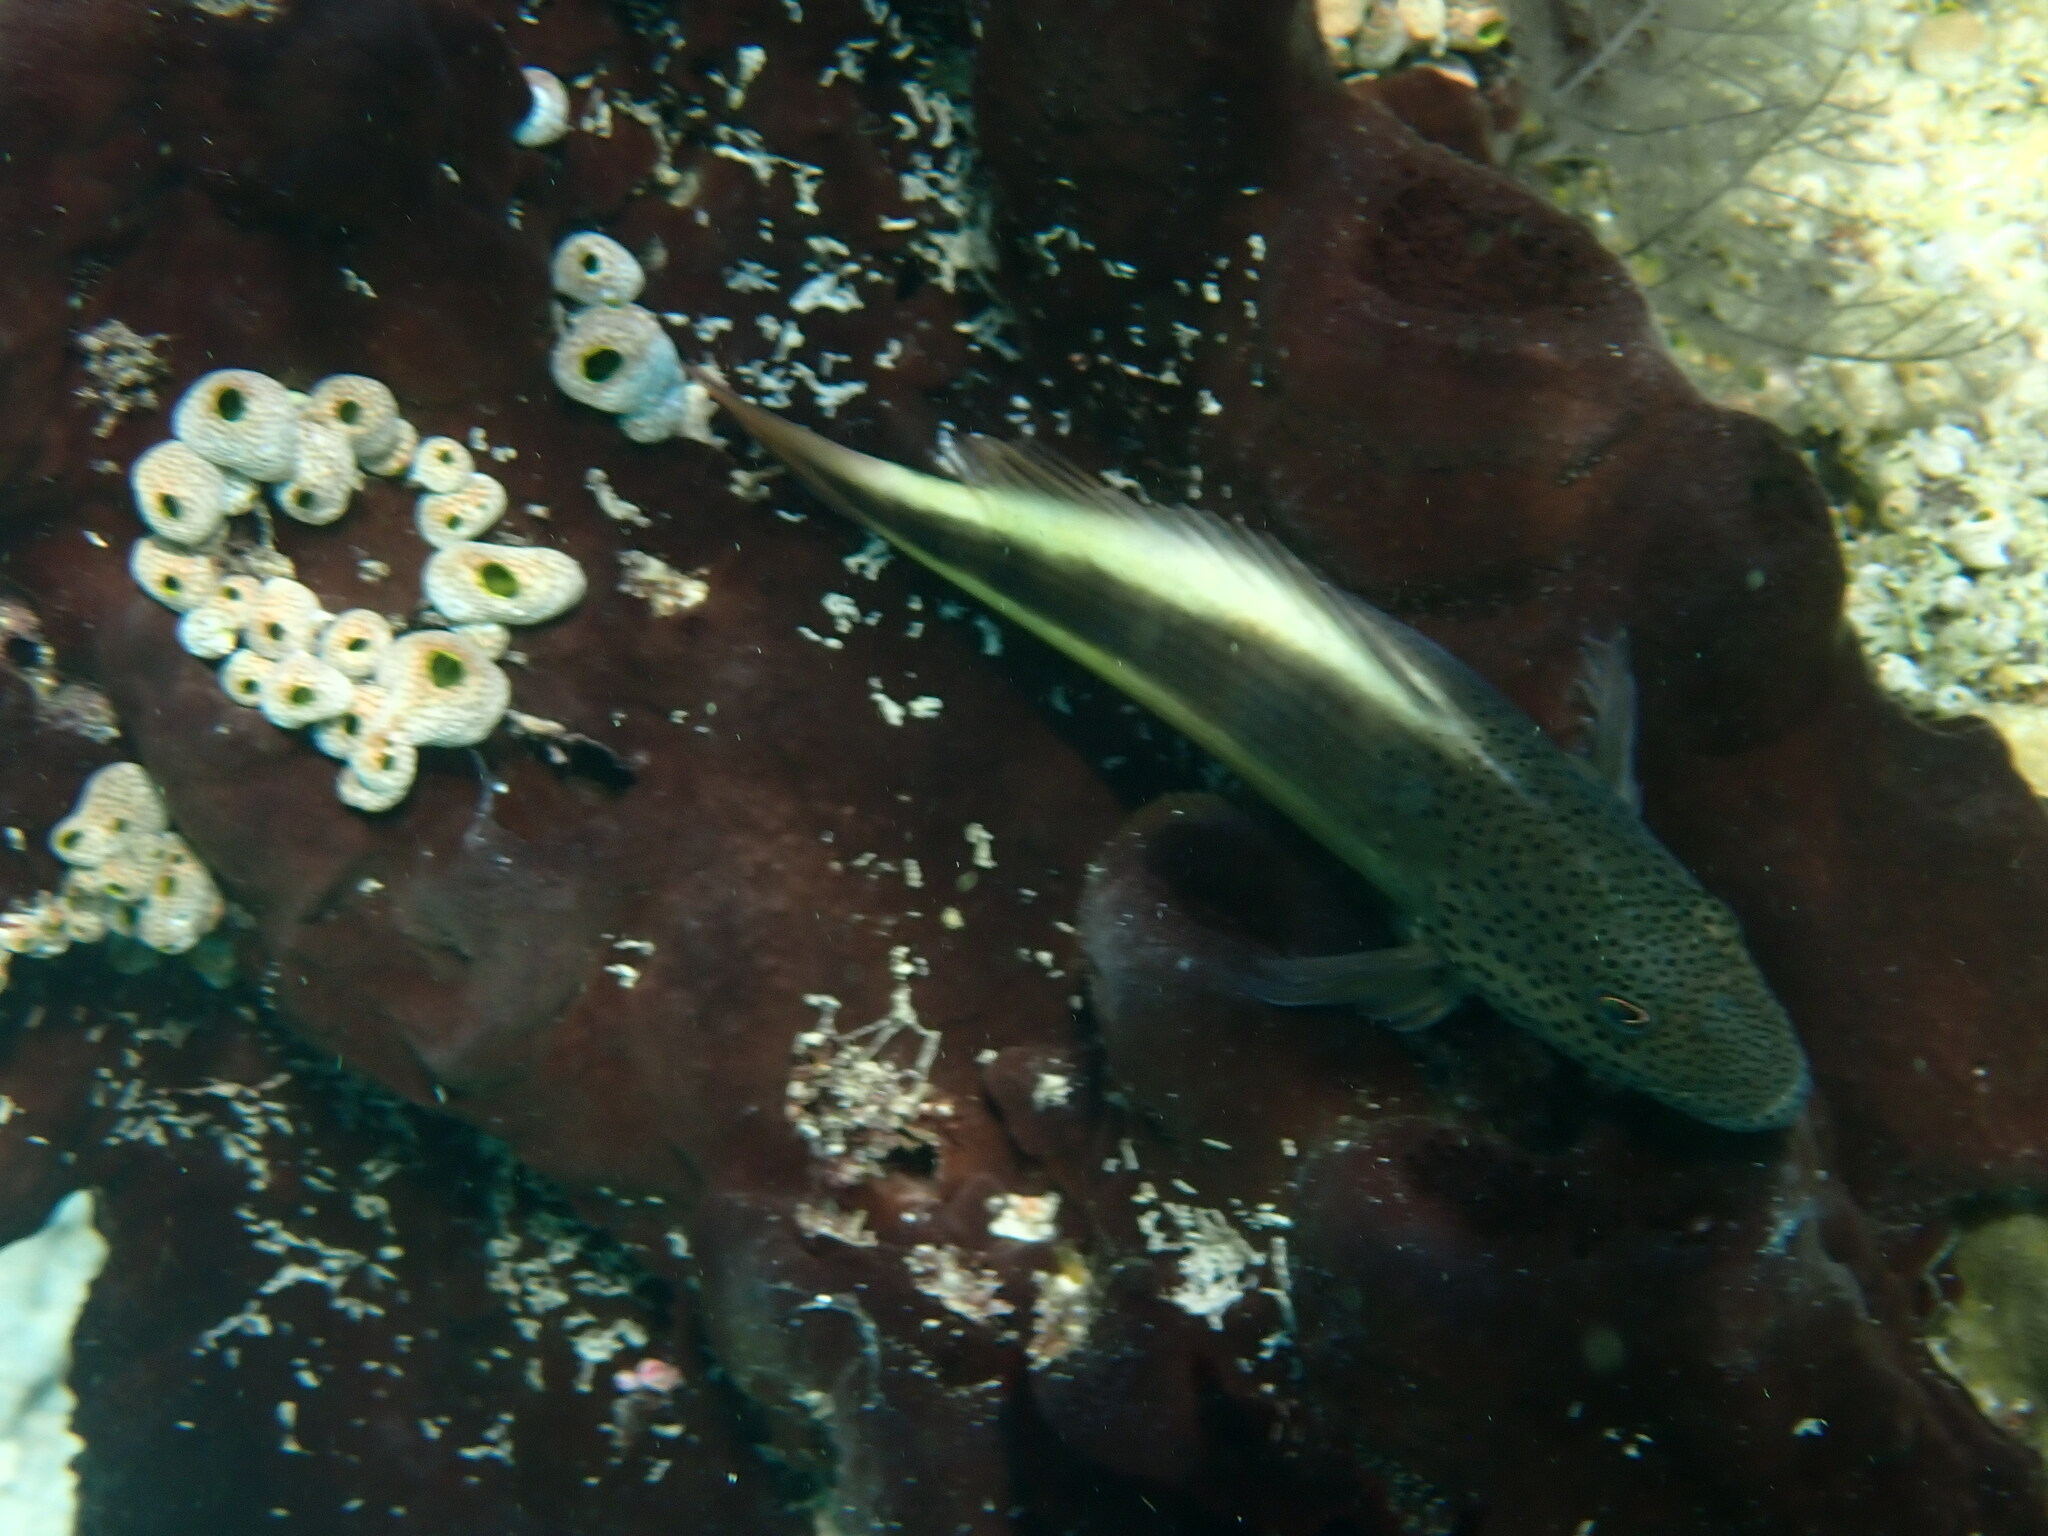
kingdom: Animalia
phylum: Chordata
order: Perciformes
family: Cirrhitidae
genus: Paracirrhites
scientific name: Paracirrhites forsteri
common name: Freckled hawkfish
